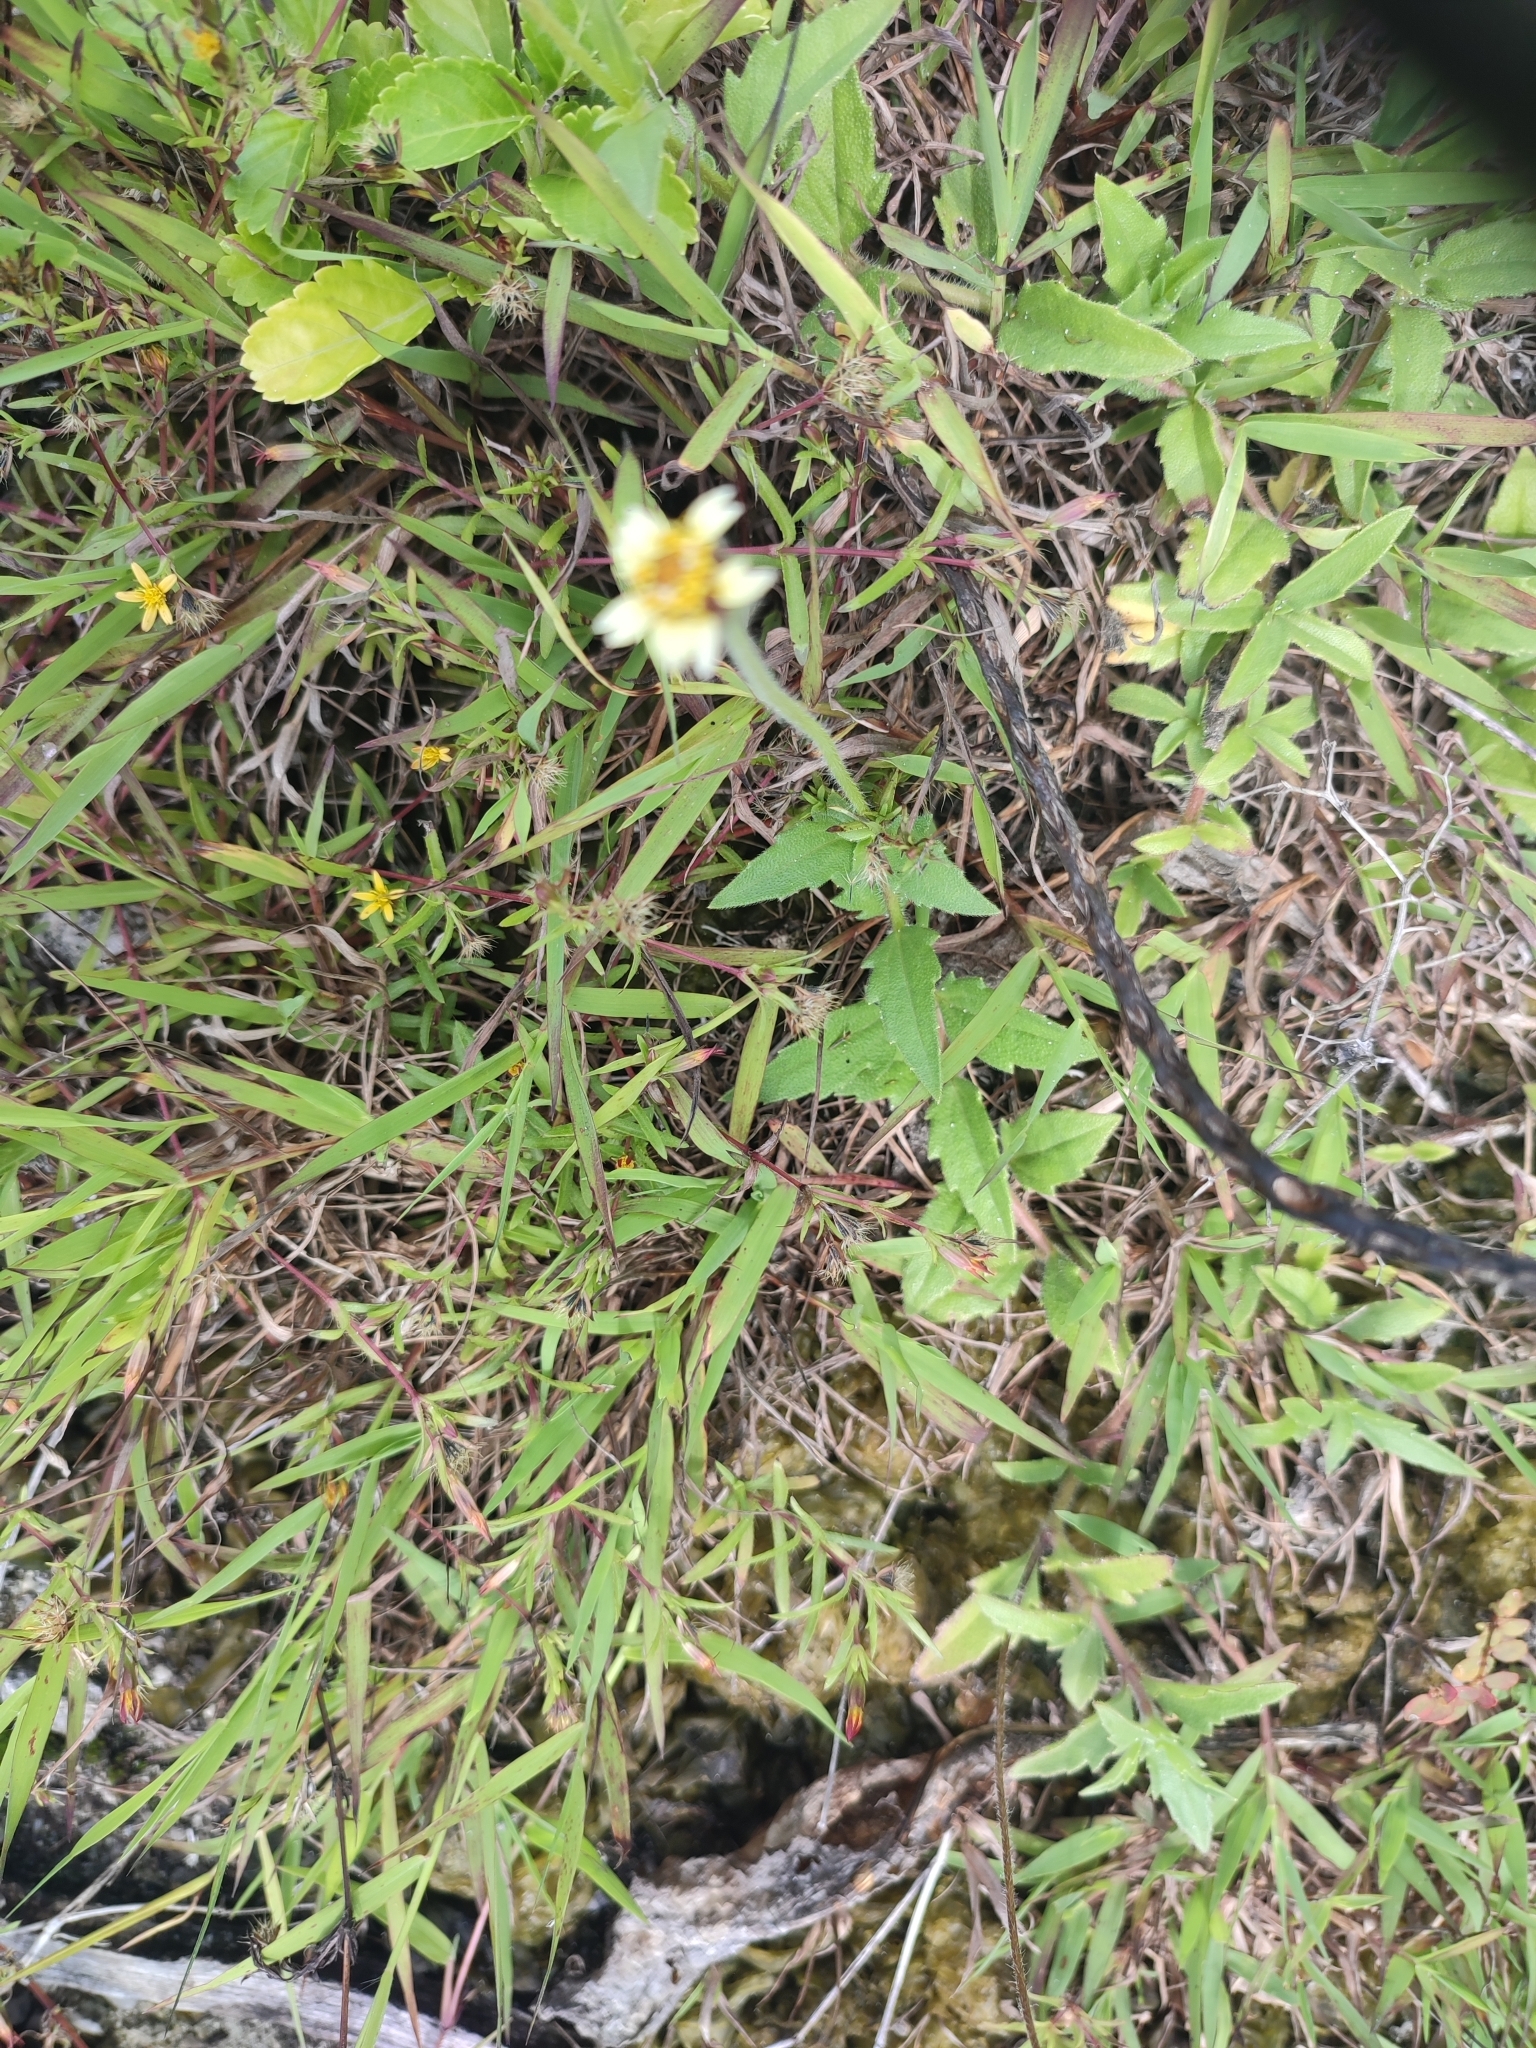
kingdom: Plantae
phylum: Tracheophyta
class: Magnoliopsida
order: Asterales
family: Asteraceae
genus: Tridax
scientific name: Tridax procumbens
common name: Coatbuttons
